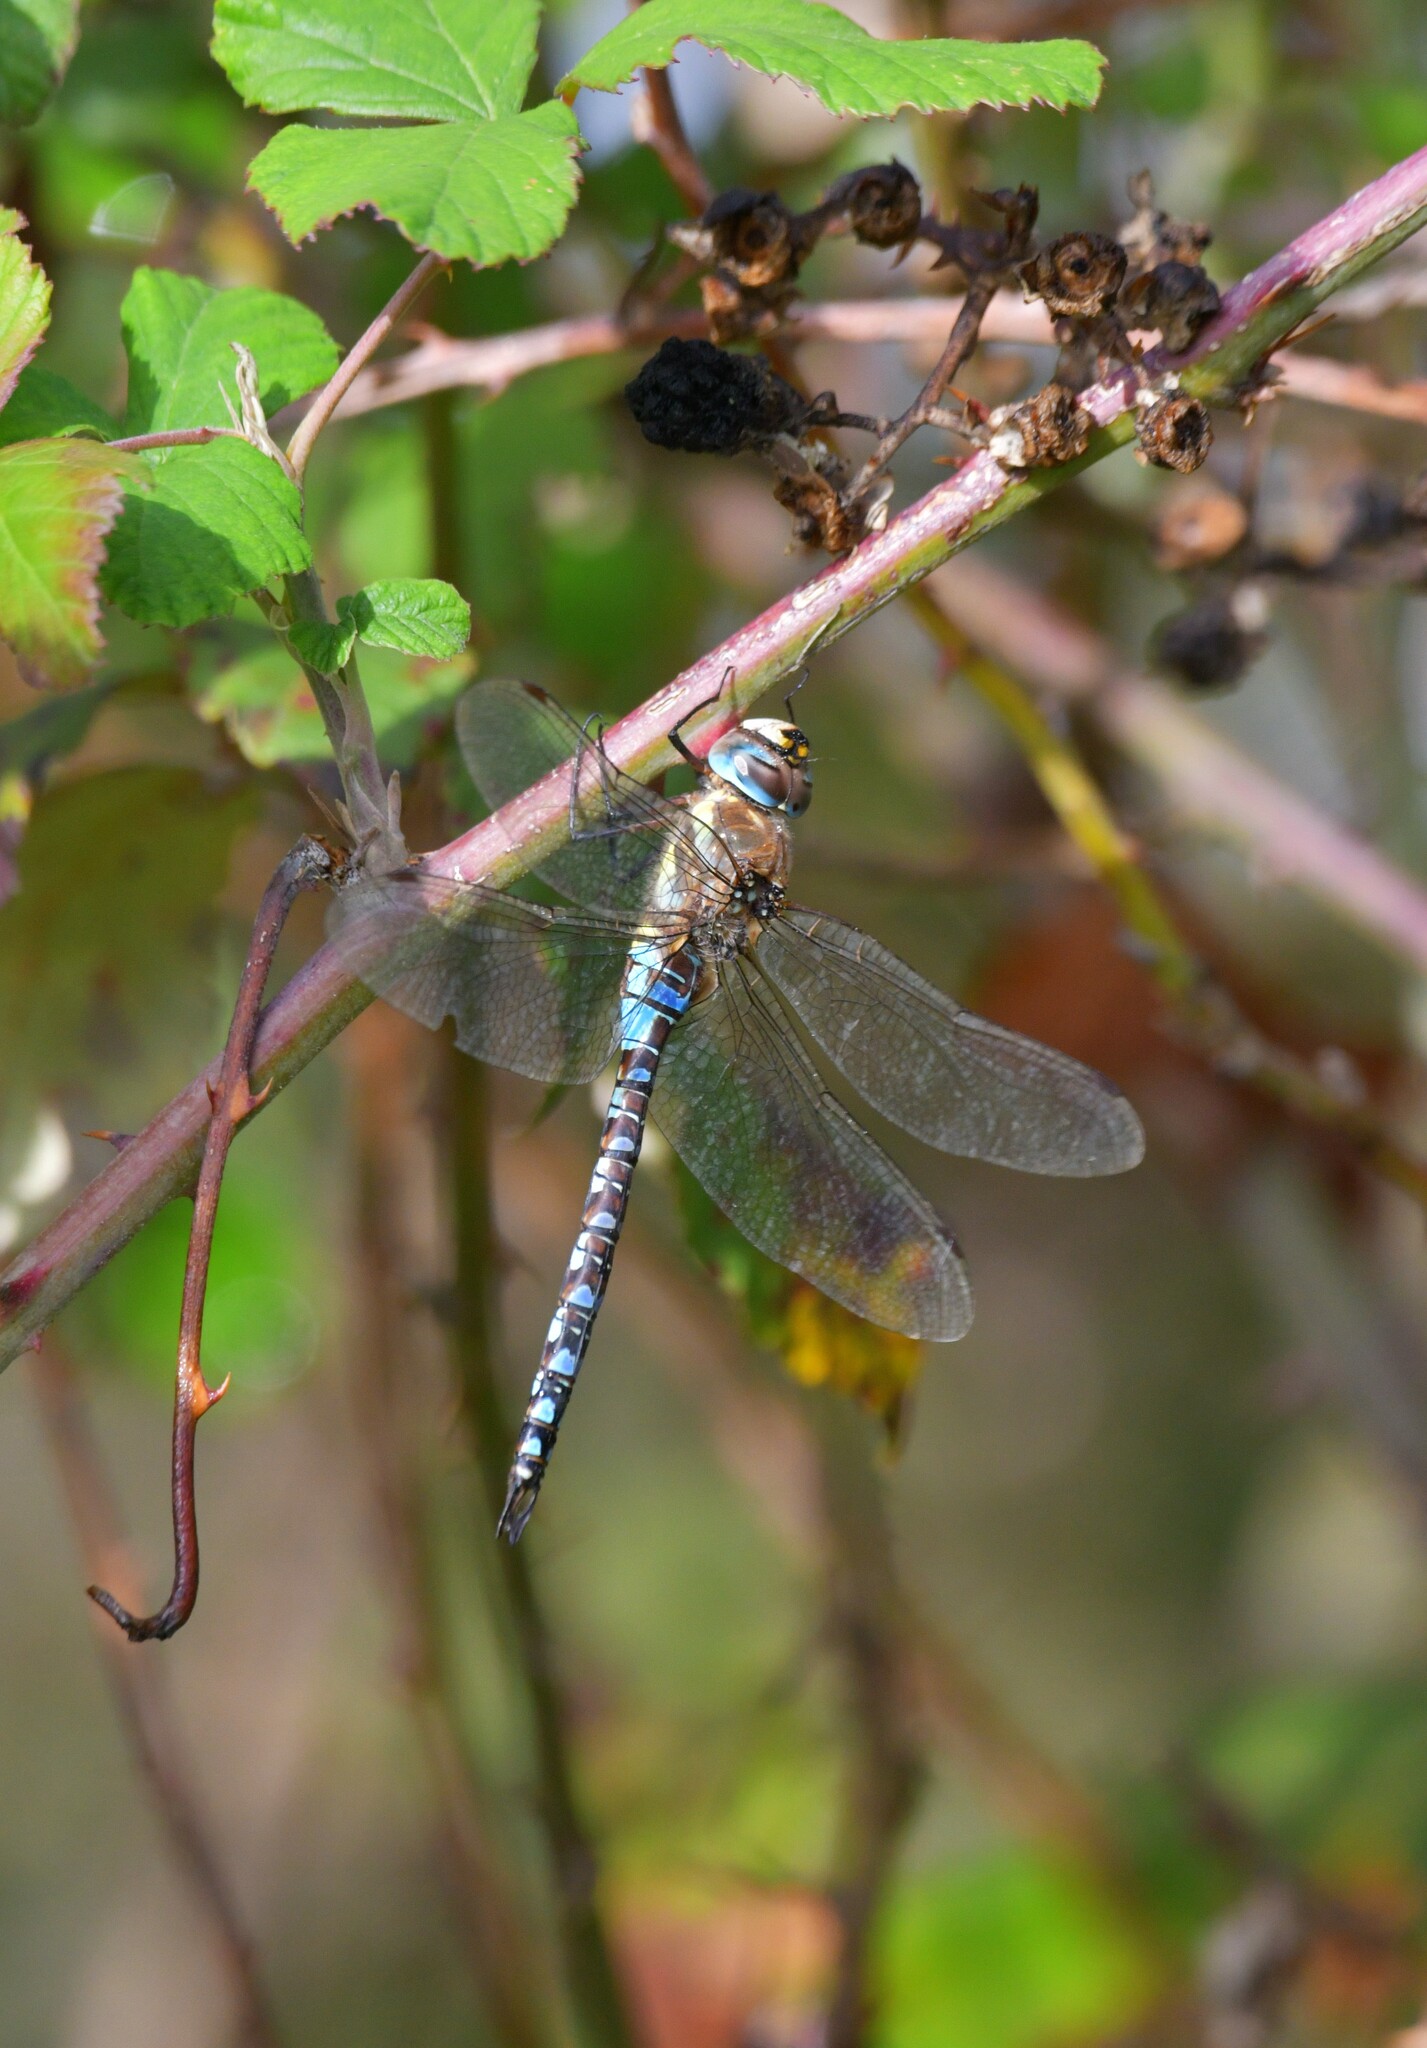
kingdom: Animalia
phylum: Arthropoda
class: Insecta
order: Odonata
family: Aeshnidae
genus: Aeshna
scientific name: Aeshna mixta
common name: Migrant hawker
